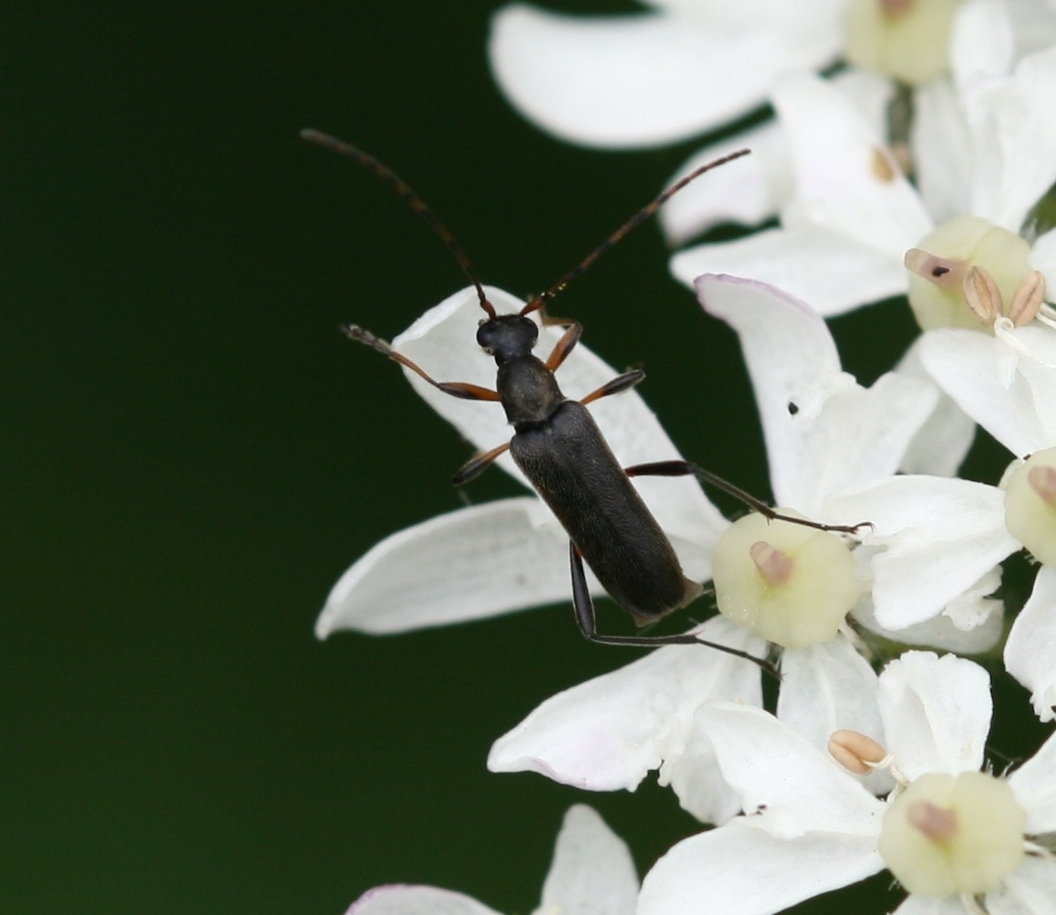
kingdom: Animalia
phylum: Arthropoda
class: Insecta
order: Coleoptera
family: Cerambycidae
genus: Grammoptera
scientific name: Grammoptera ruficornis
